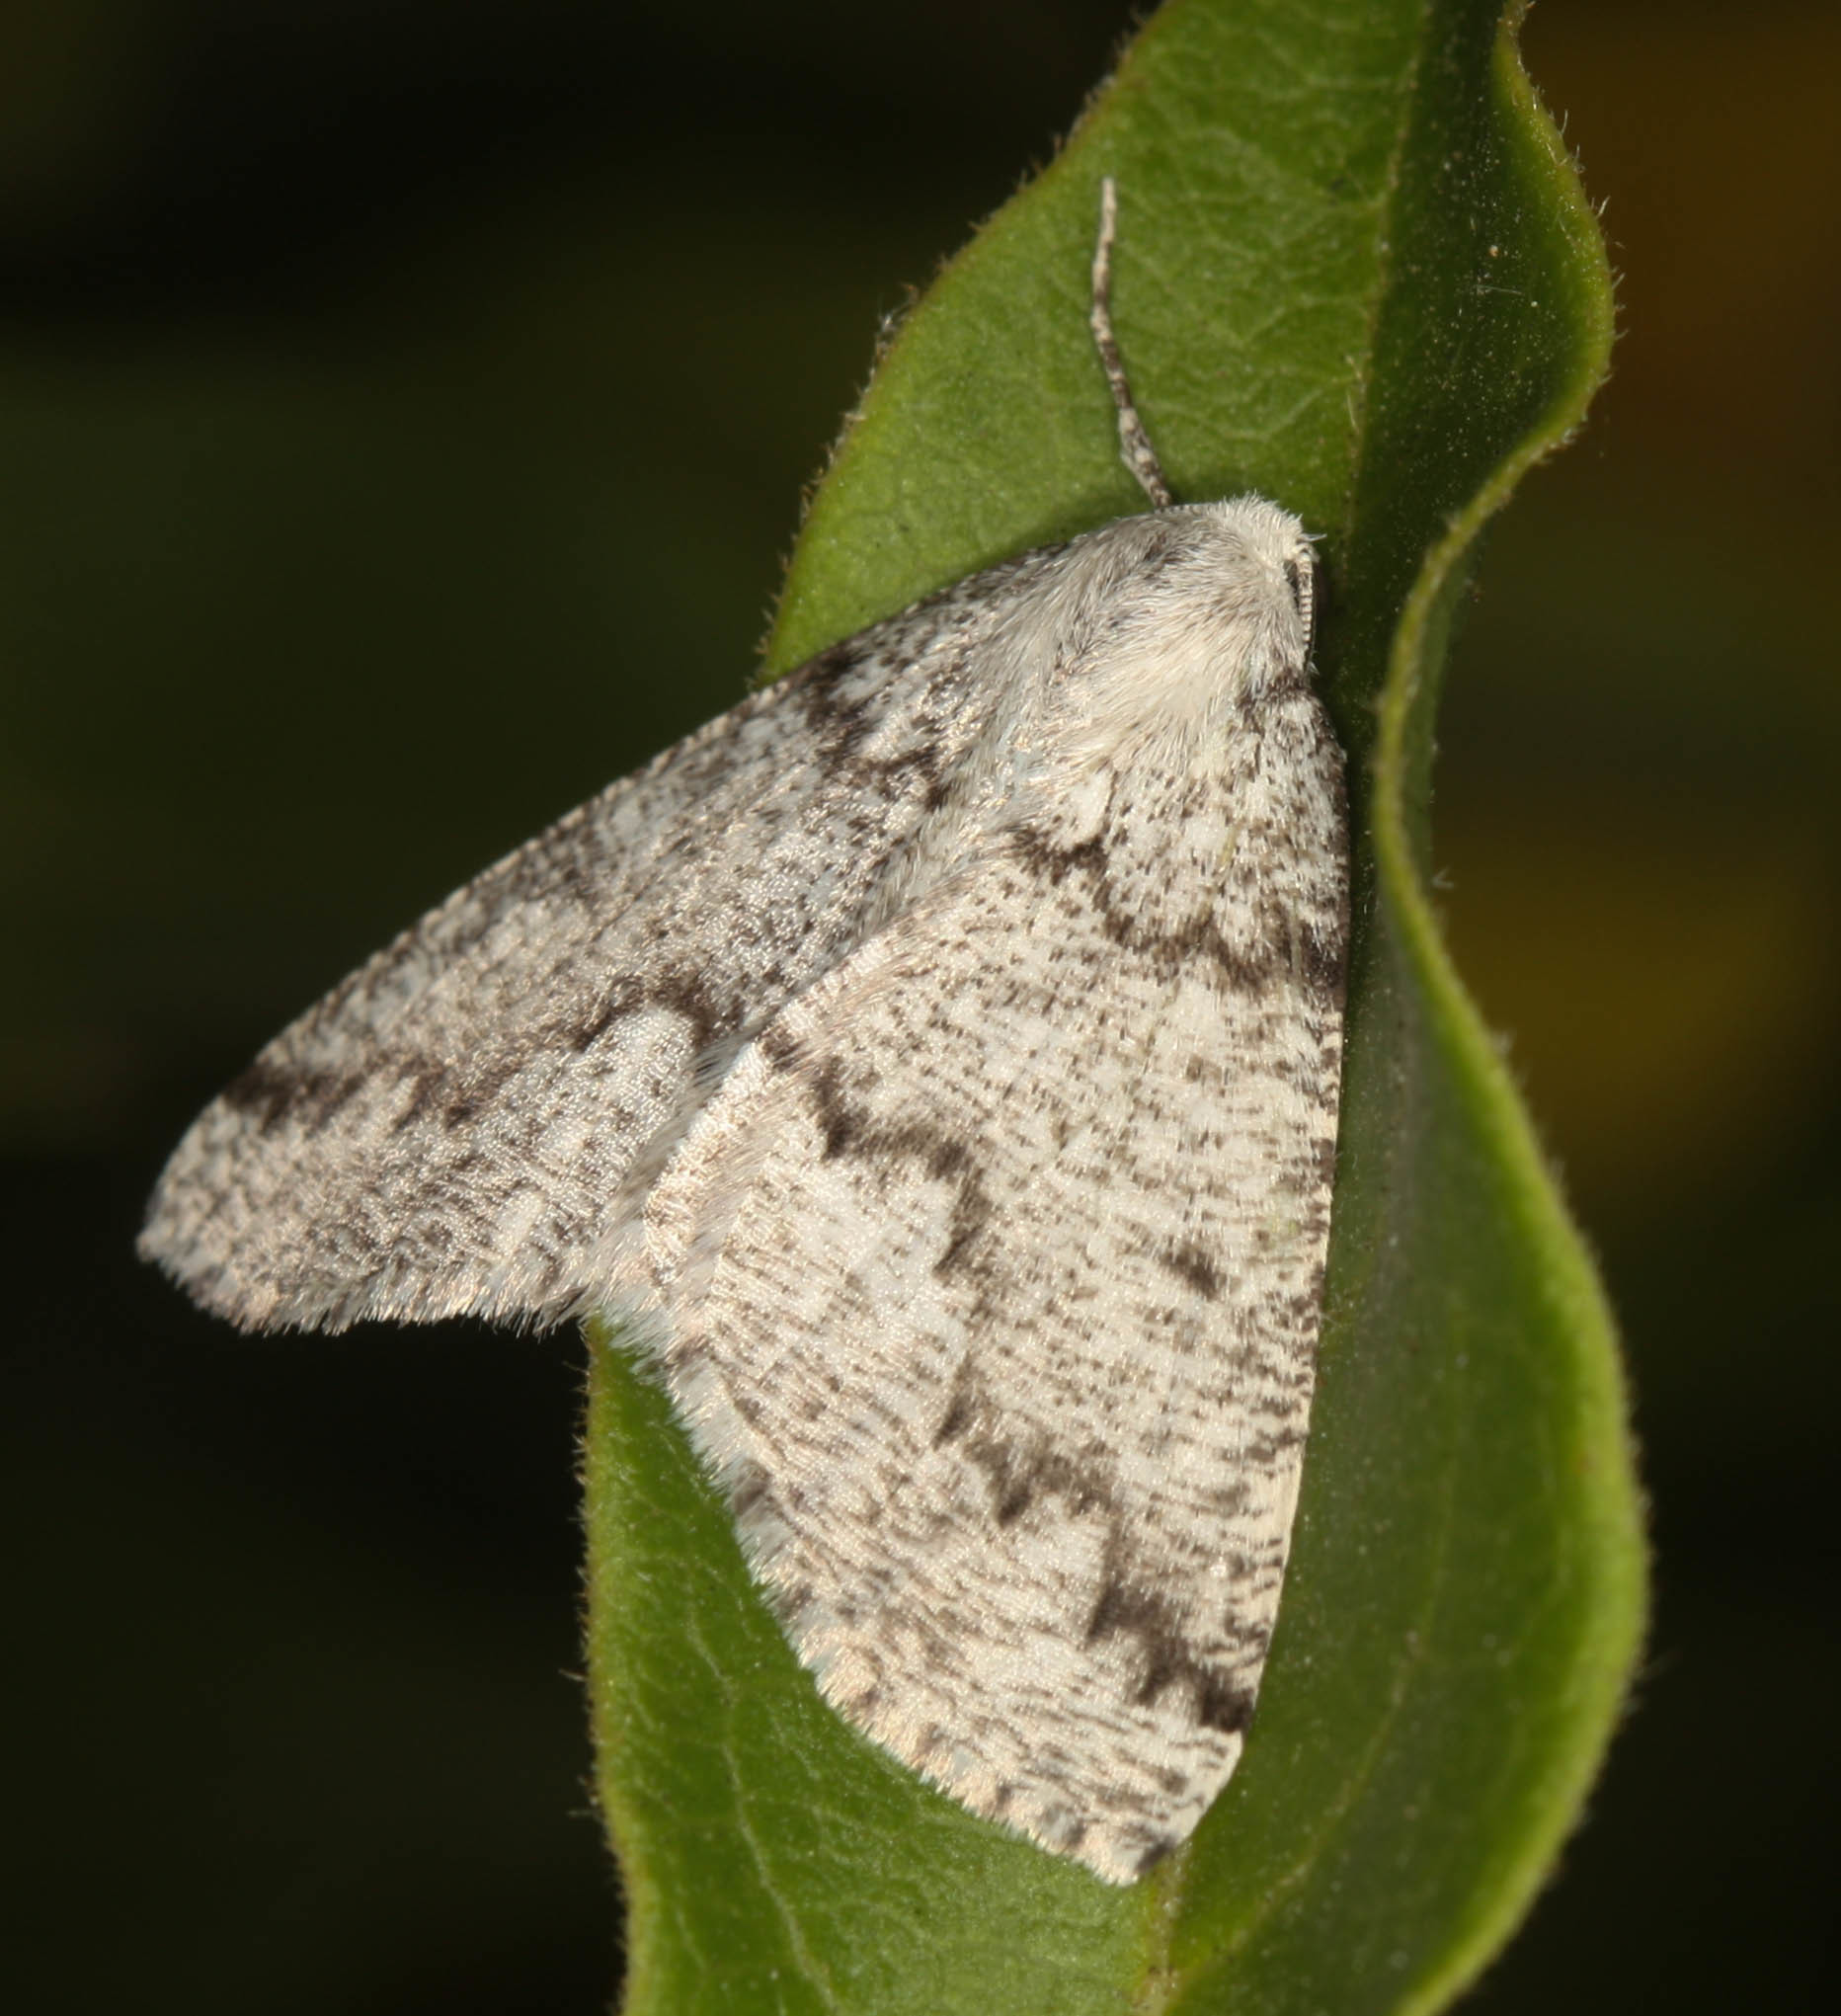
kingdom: Animalia
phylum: Arthropoda
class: Insecta
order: Lepidoptera
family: Geometridae
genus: Sabulodes
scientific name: Sabulodes
